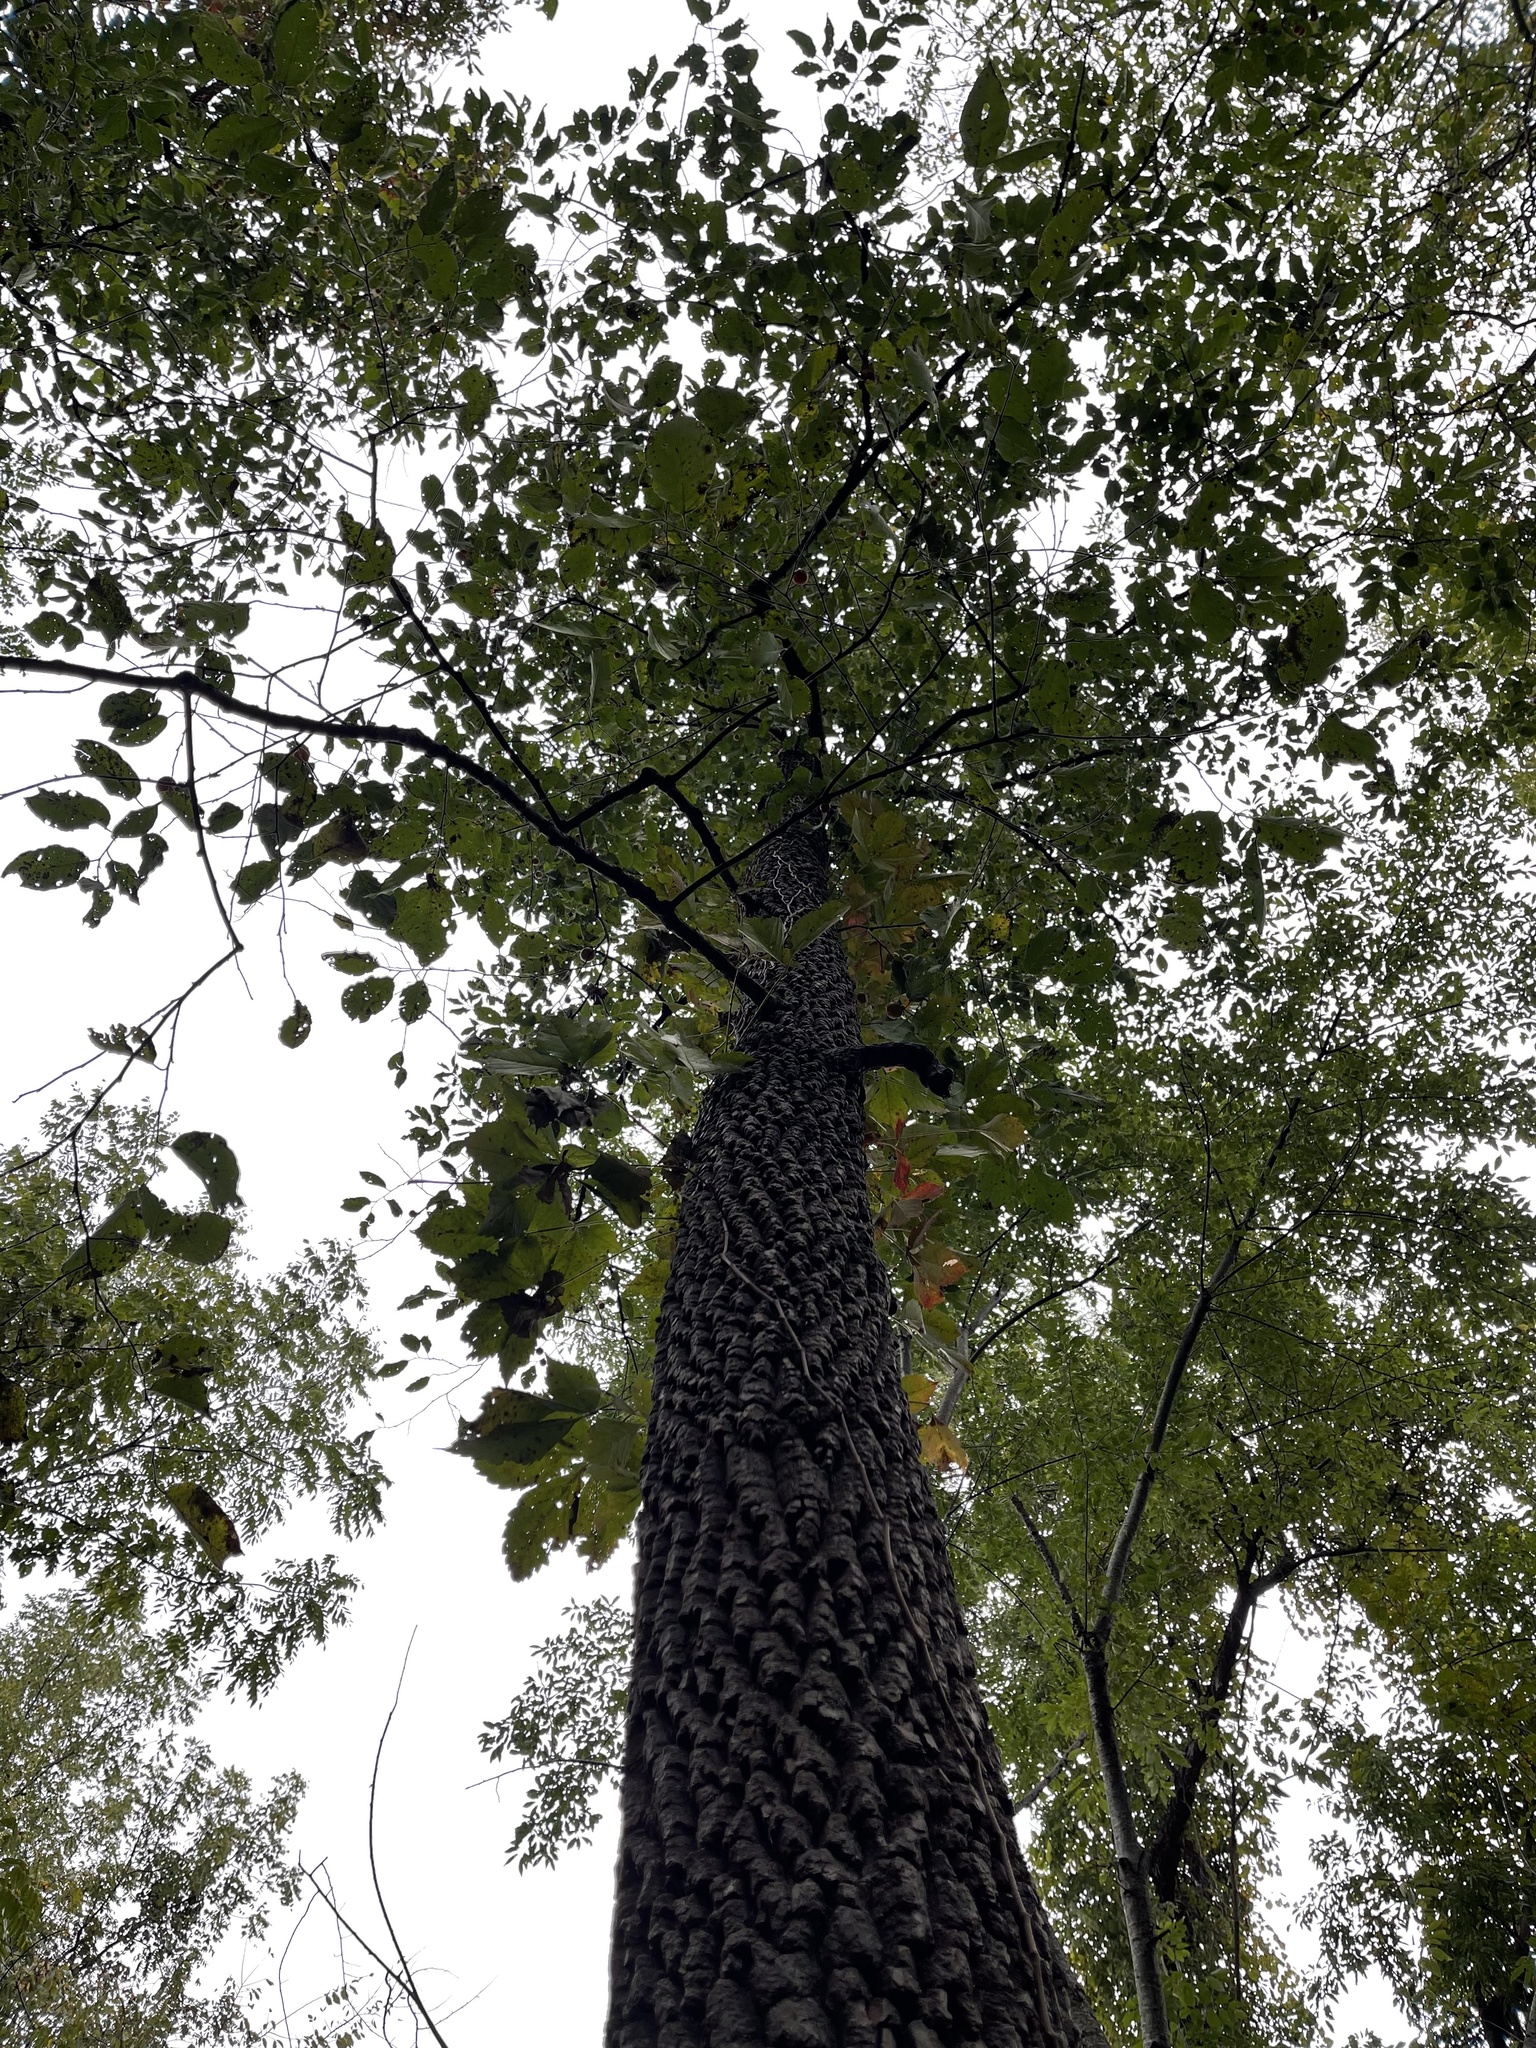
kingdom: Plantae
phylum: Tracheophyta
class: Magnoliopsida
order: Ericales
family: Ebenaceae
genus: Diospyros
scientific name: Diospyros virginiana
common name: Persimmon
